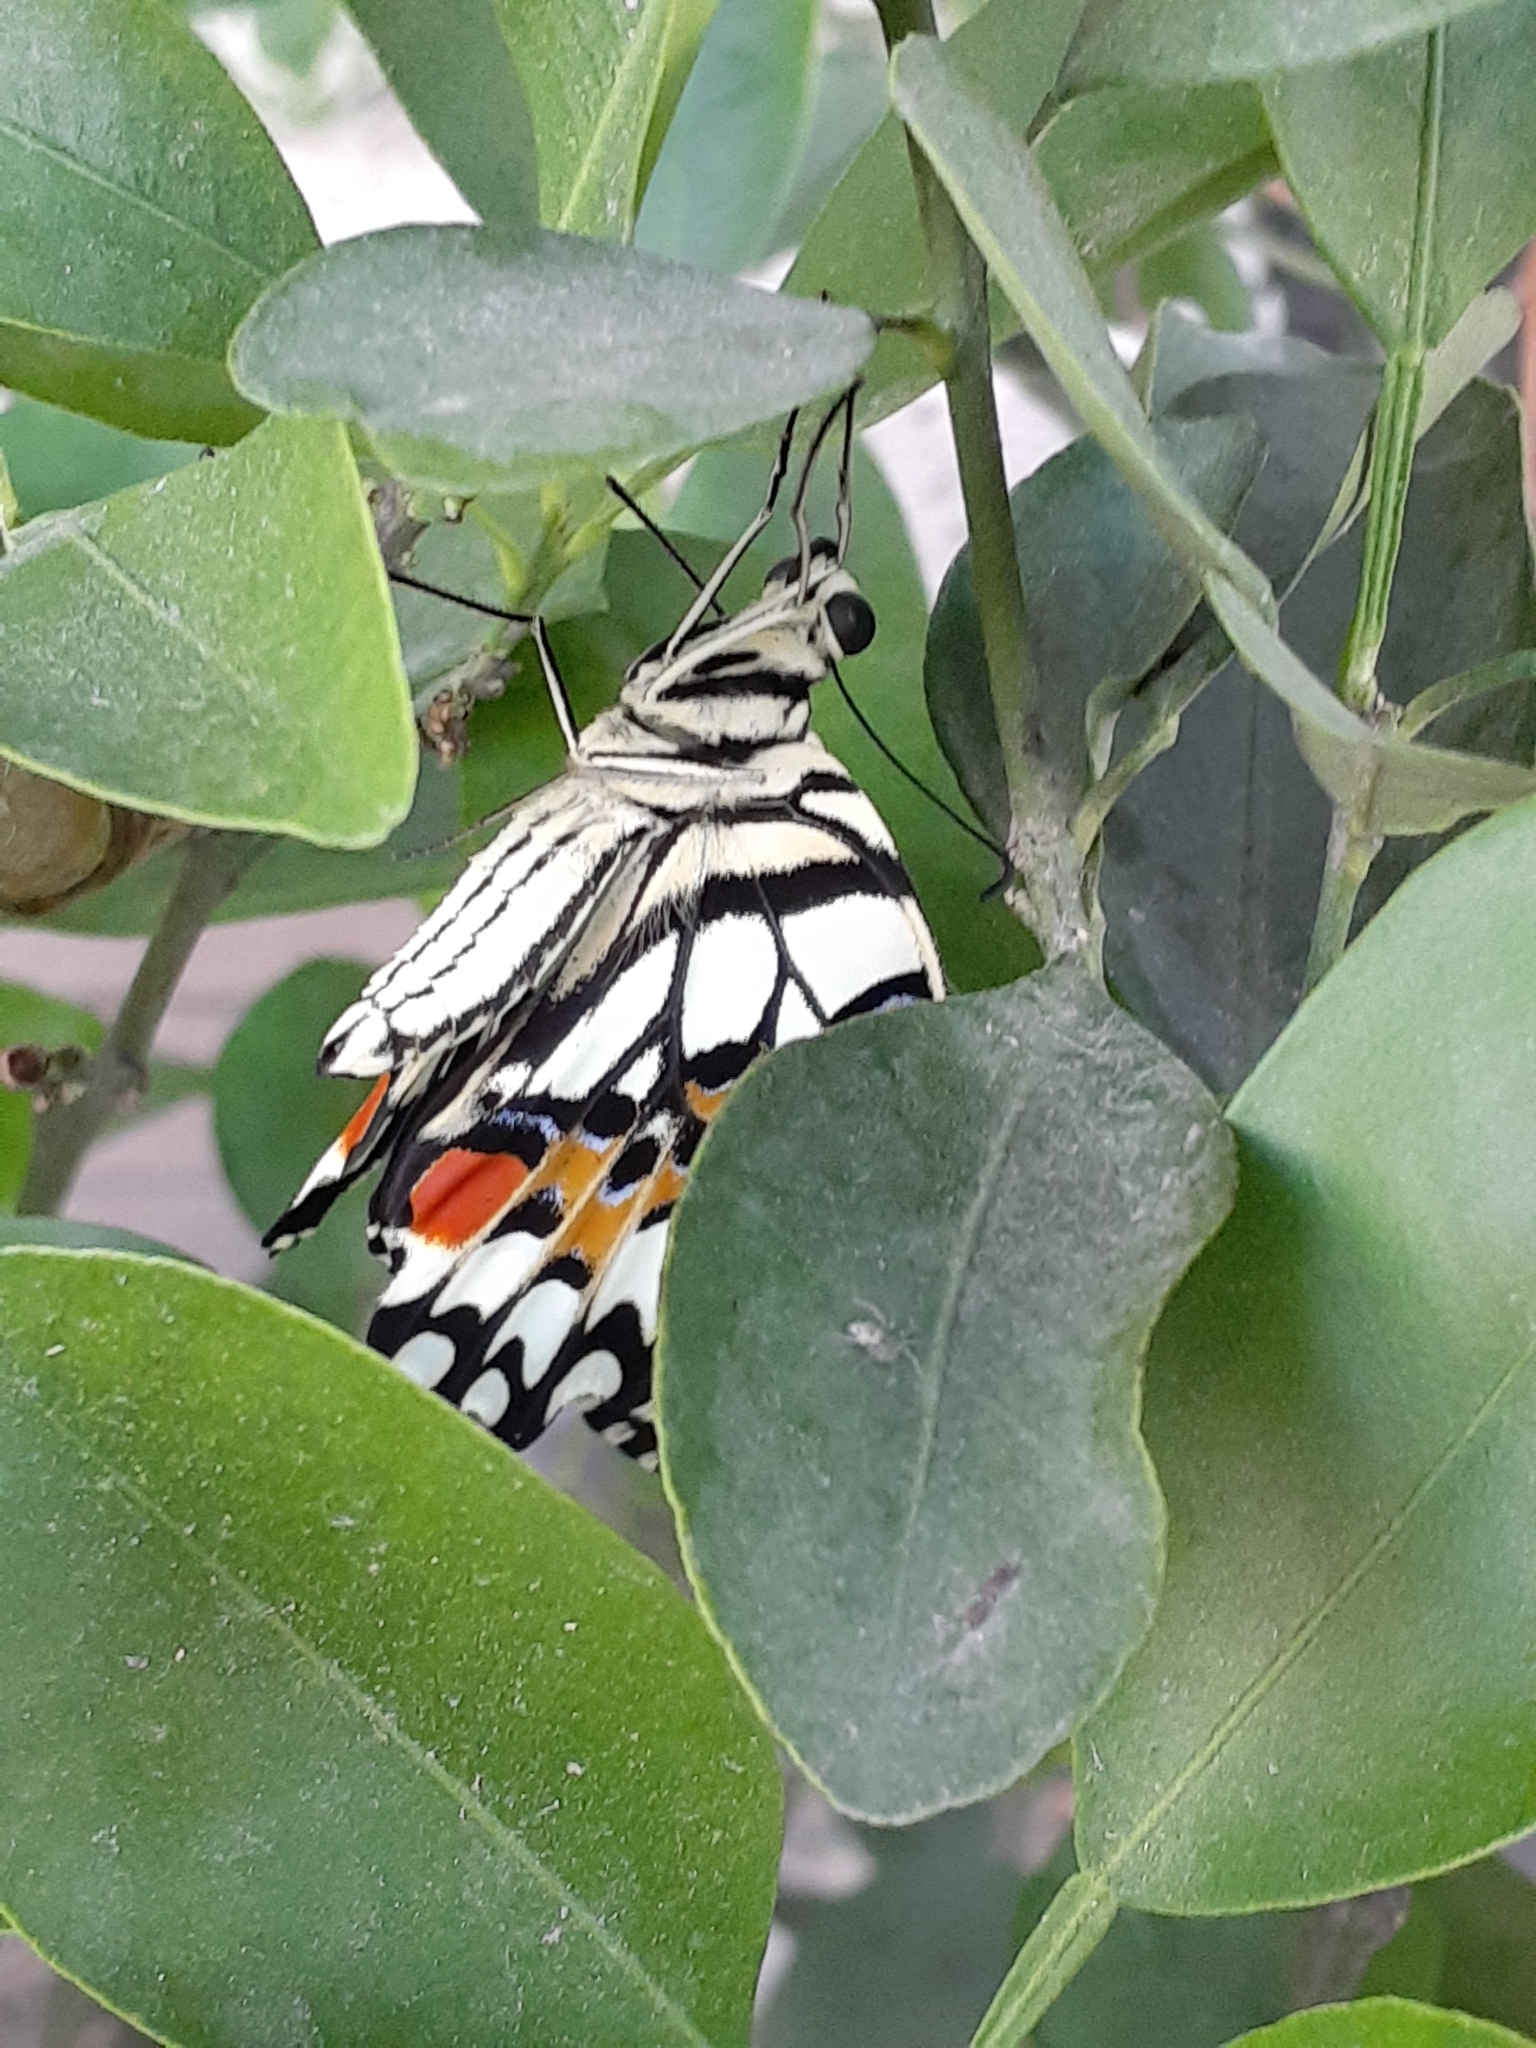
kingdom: Animalia
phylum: Arthropoda
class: Insecta
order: Lepidoptera
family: Papilionidae
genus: Papilio
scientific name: Papilio demoleus
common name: Lime butterfly
